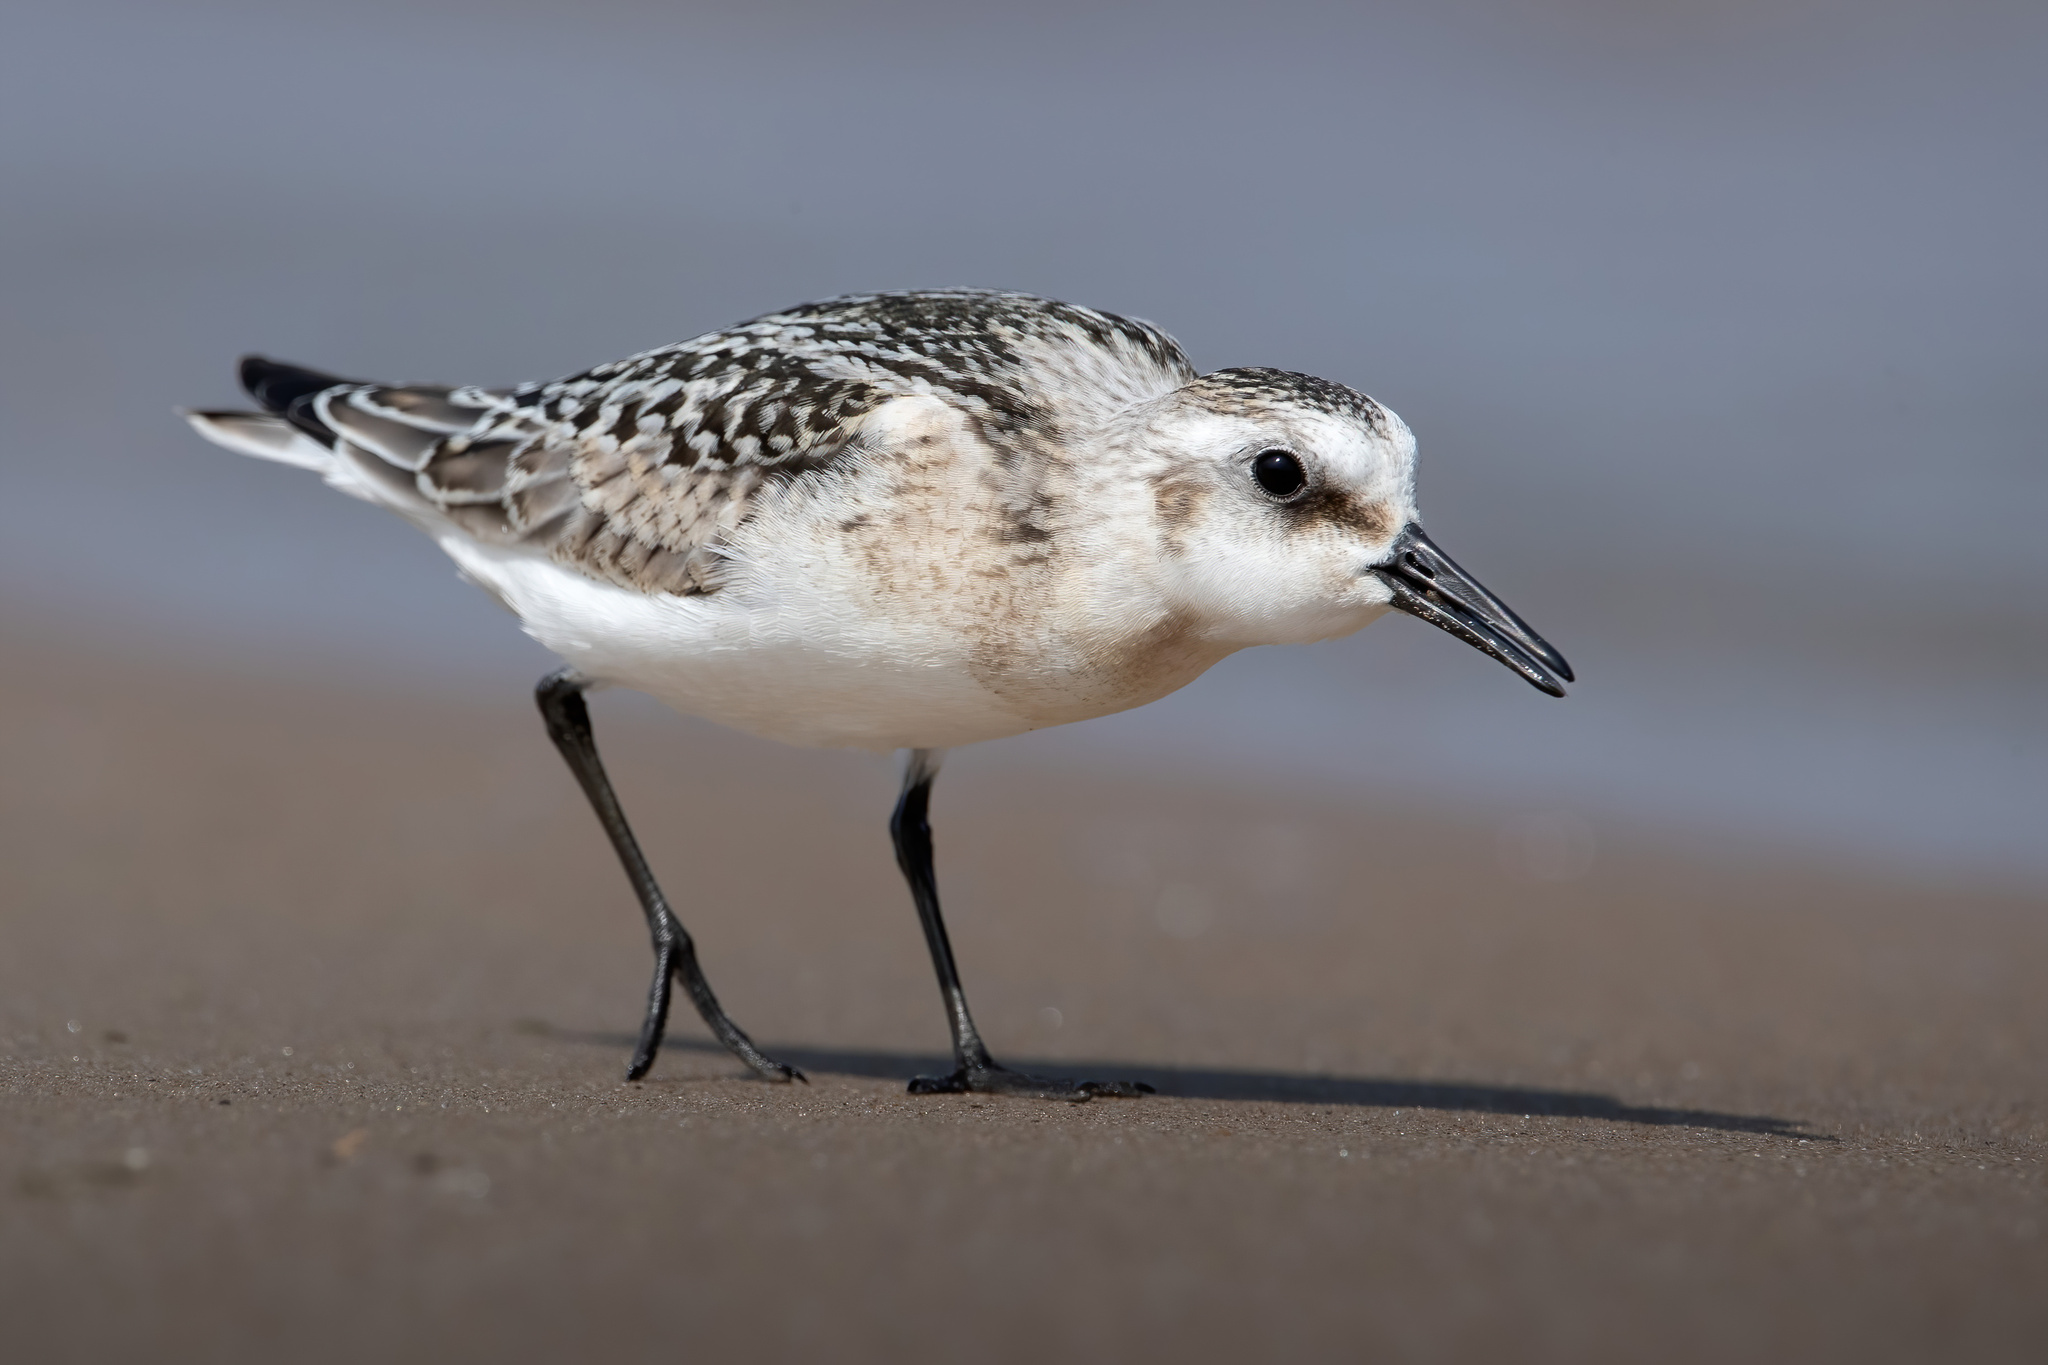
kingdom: Animalia
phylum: Chordata
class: Aves
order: Charadriiformes
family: Scolopacidae
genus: Calidris
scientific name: Calidris alba
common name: Sanderling
